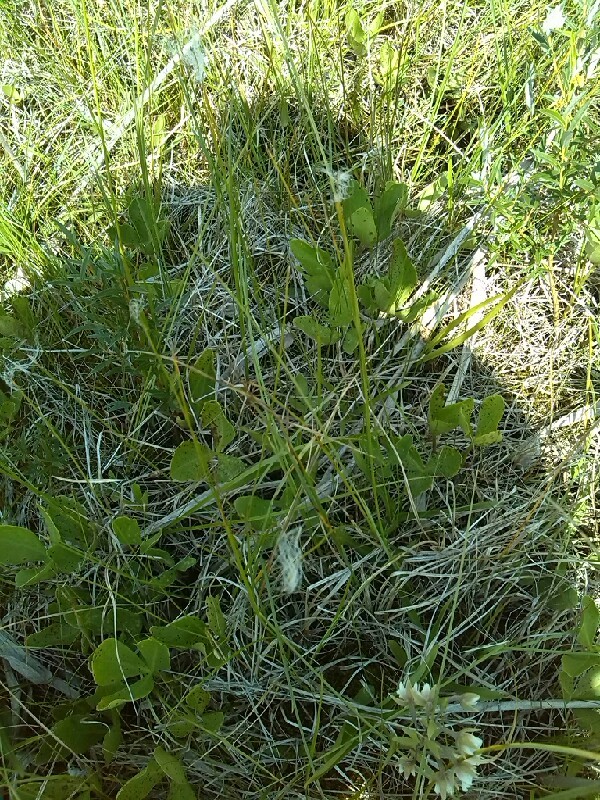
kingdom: Plantae
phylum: Tracheophyta
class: Liliopsida
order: Poales
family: Cyperaceae
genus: Trichophorum
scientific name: Trichophorum alpinum
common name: Alpine bulrush
